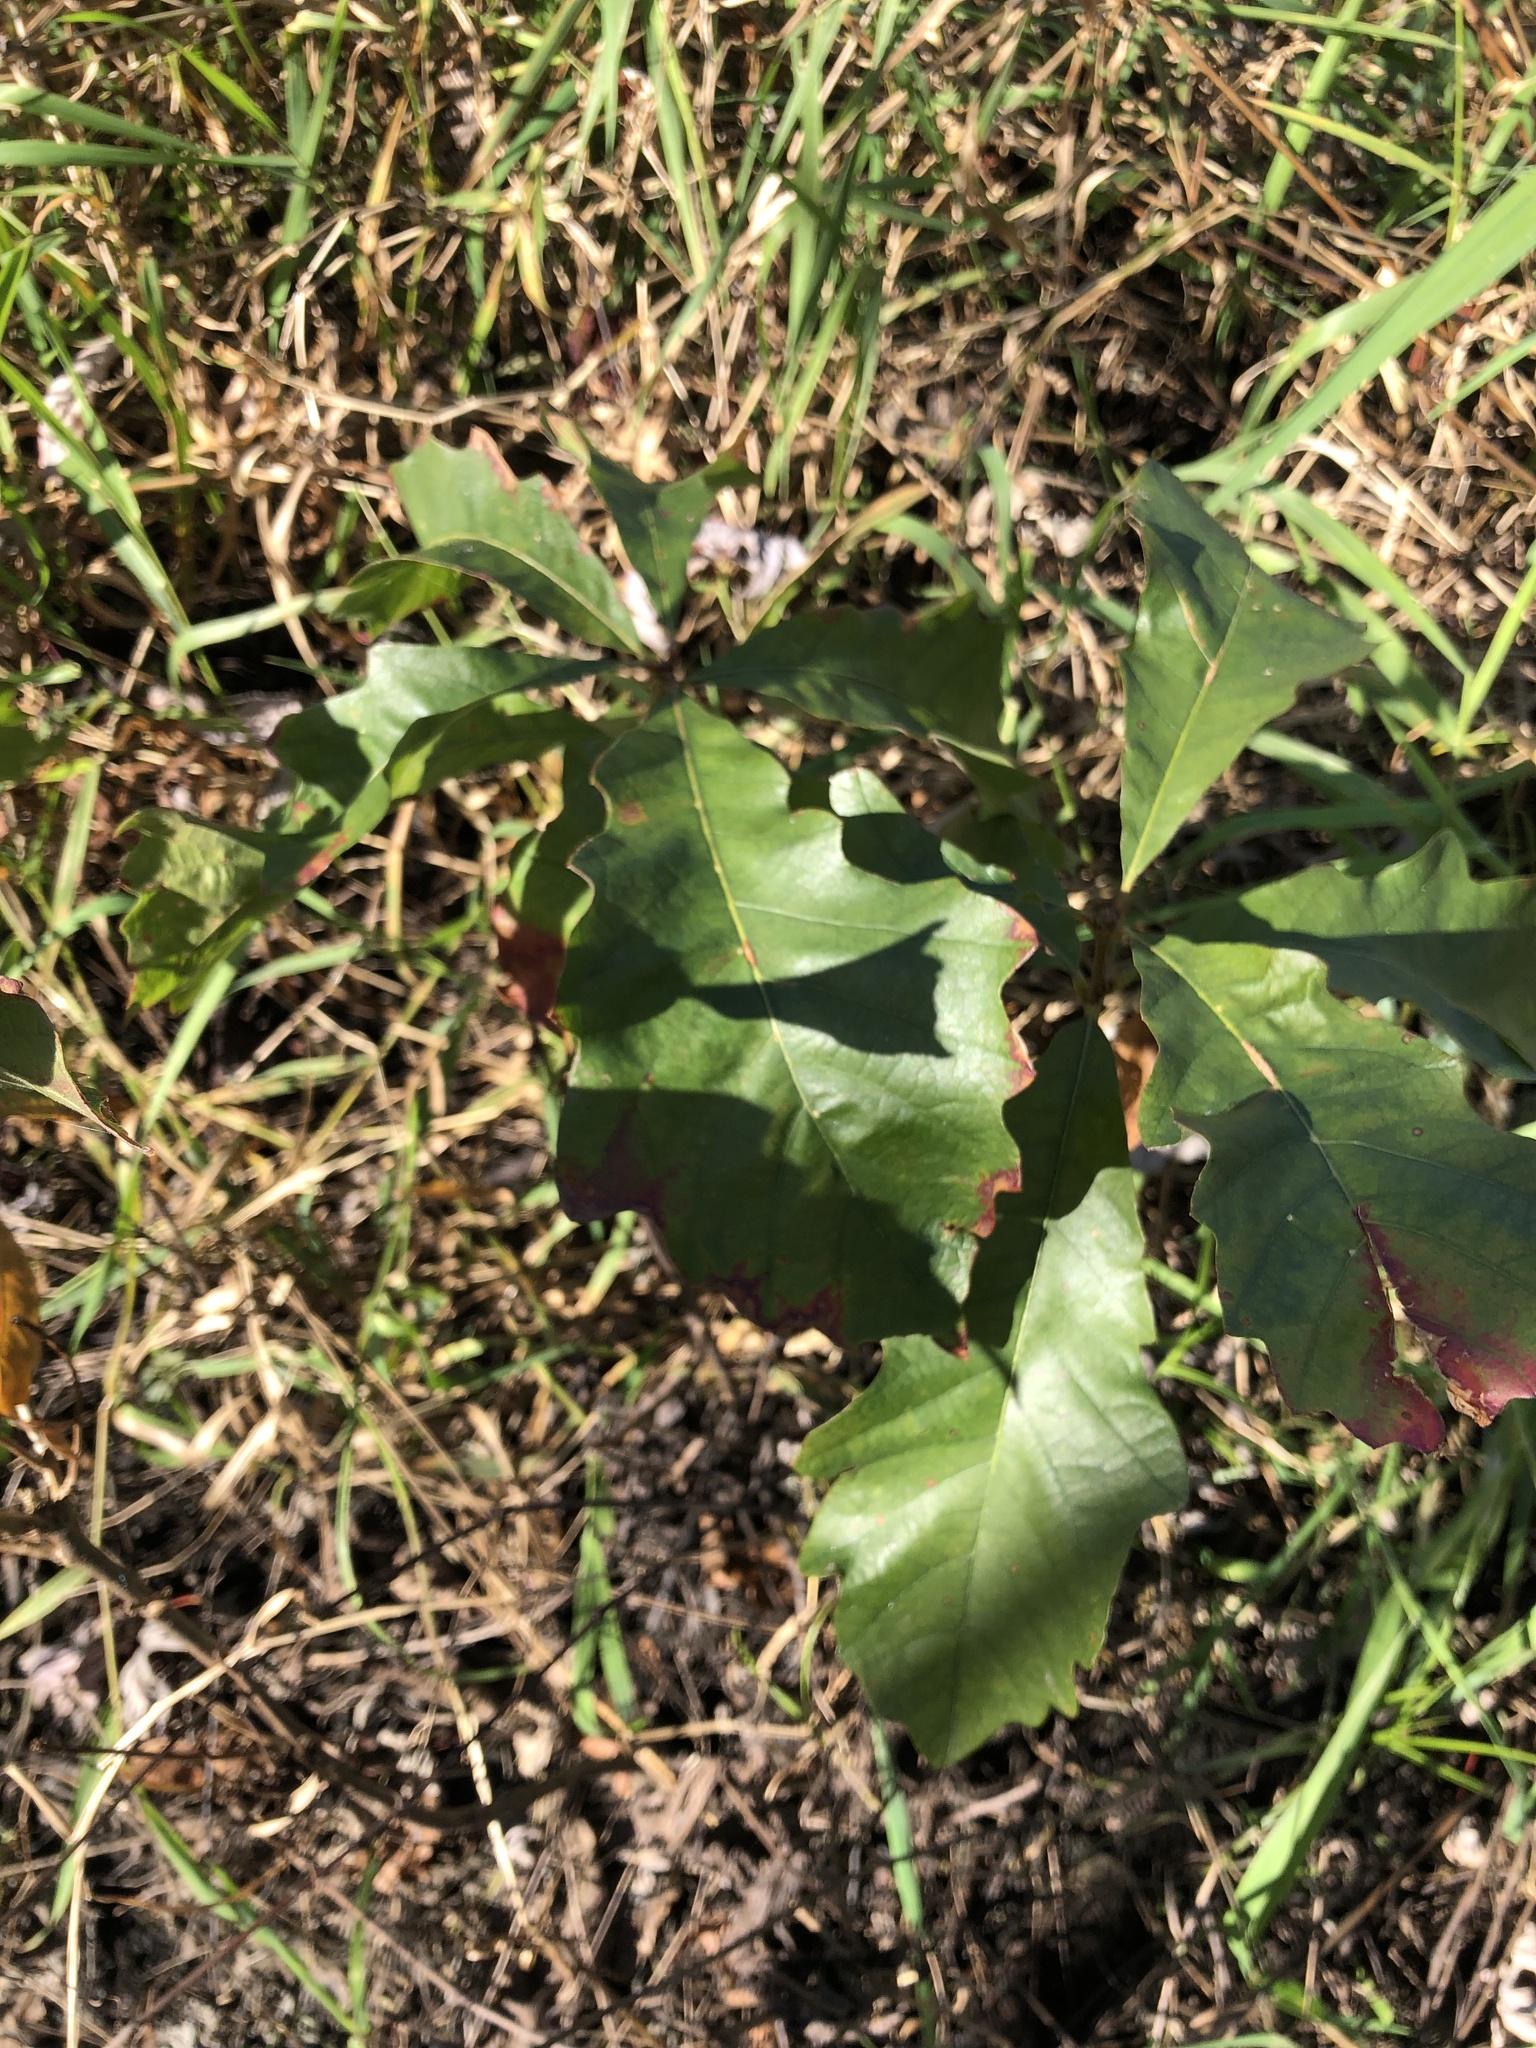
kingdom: Plantae
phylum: Tracheophyta
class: Magnoliopsida
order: Fagales
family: Fagaceae
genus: Quercus
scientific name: Quercus bicolor
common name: Swamp white oak
